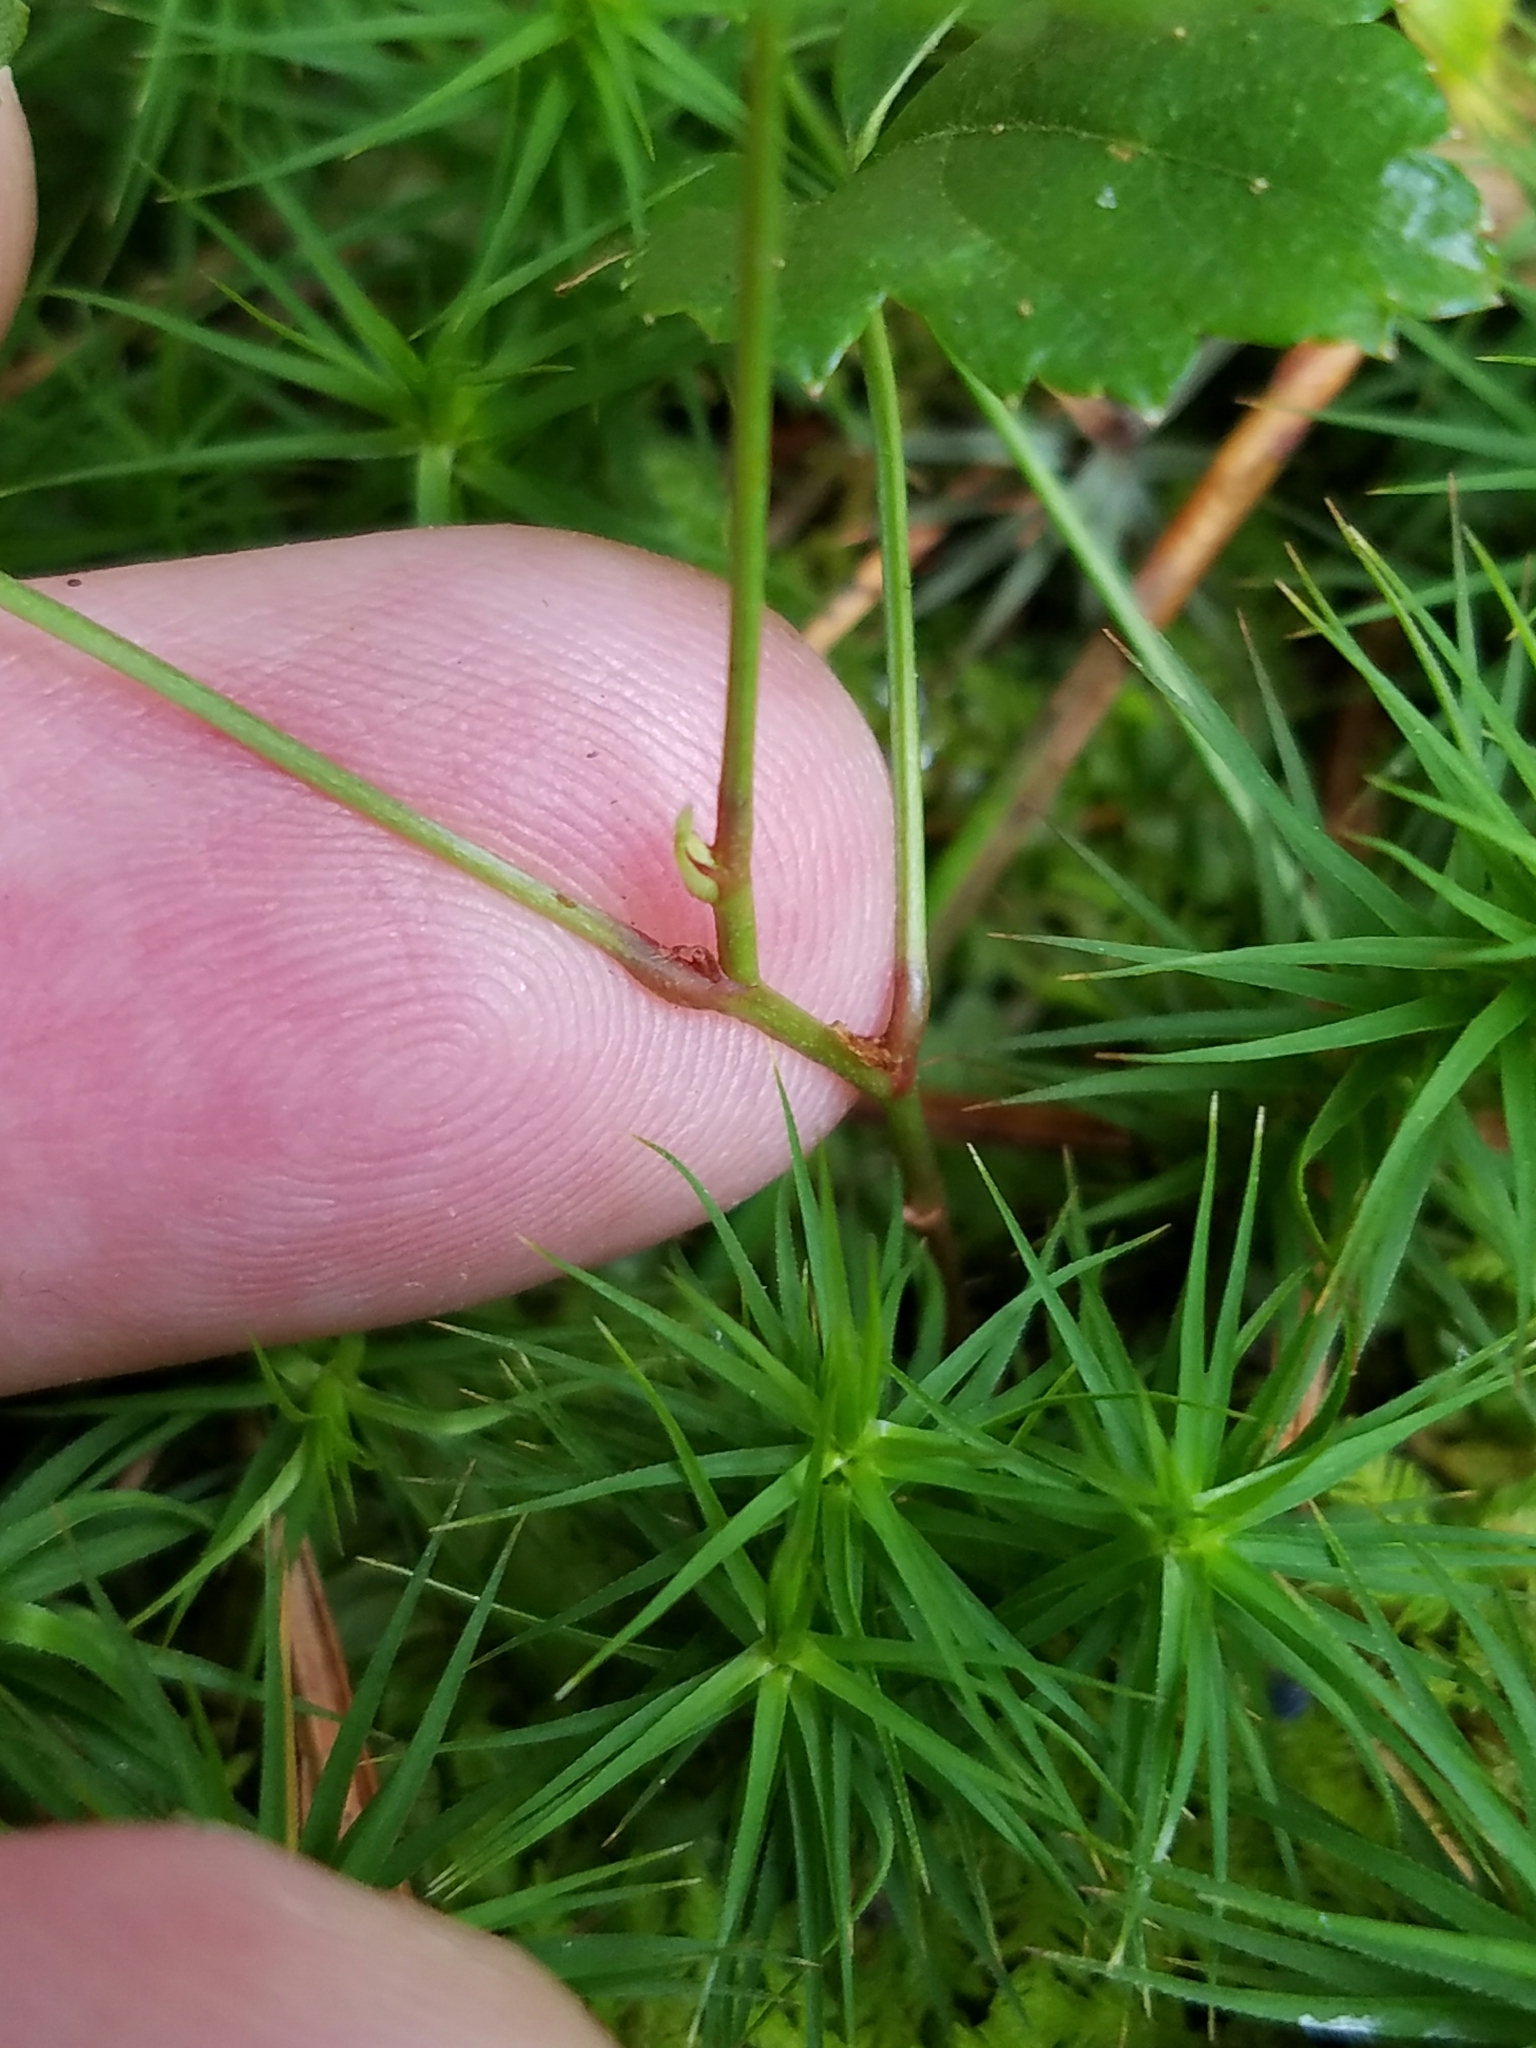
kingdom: Plantae
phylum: Tracheophyta
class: Magnoliopsida
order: Rosales
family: Rosaceae
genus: Rubus
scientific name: Rubus hispidus
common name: Running blackberry
